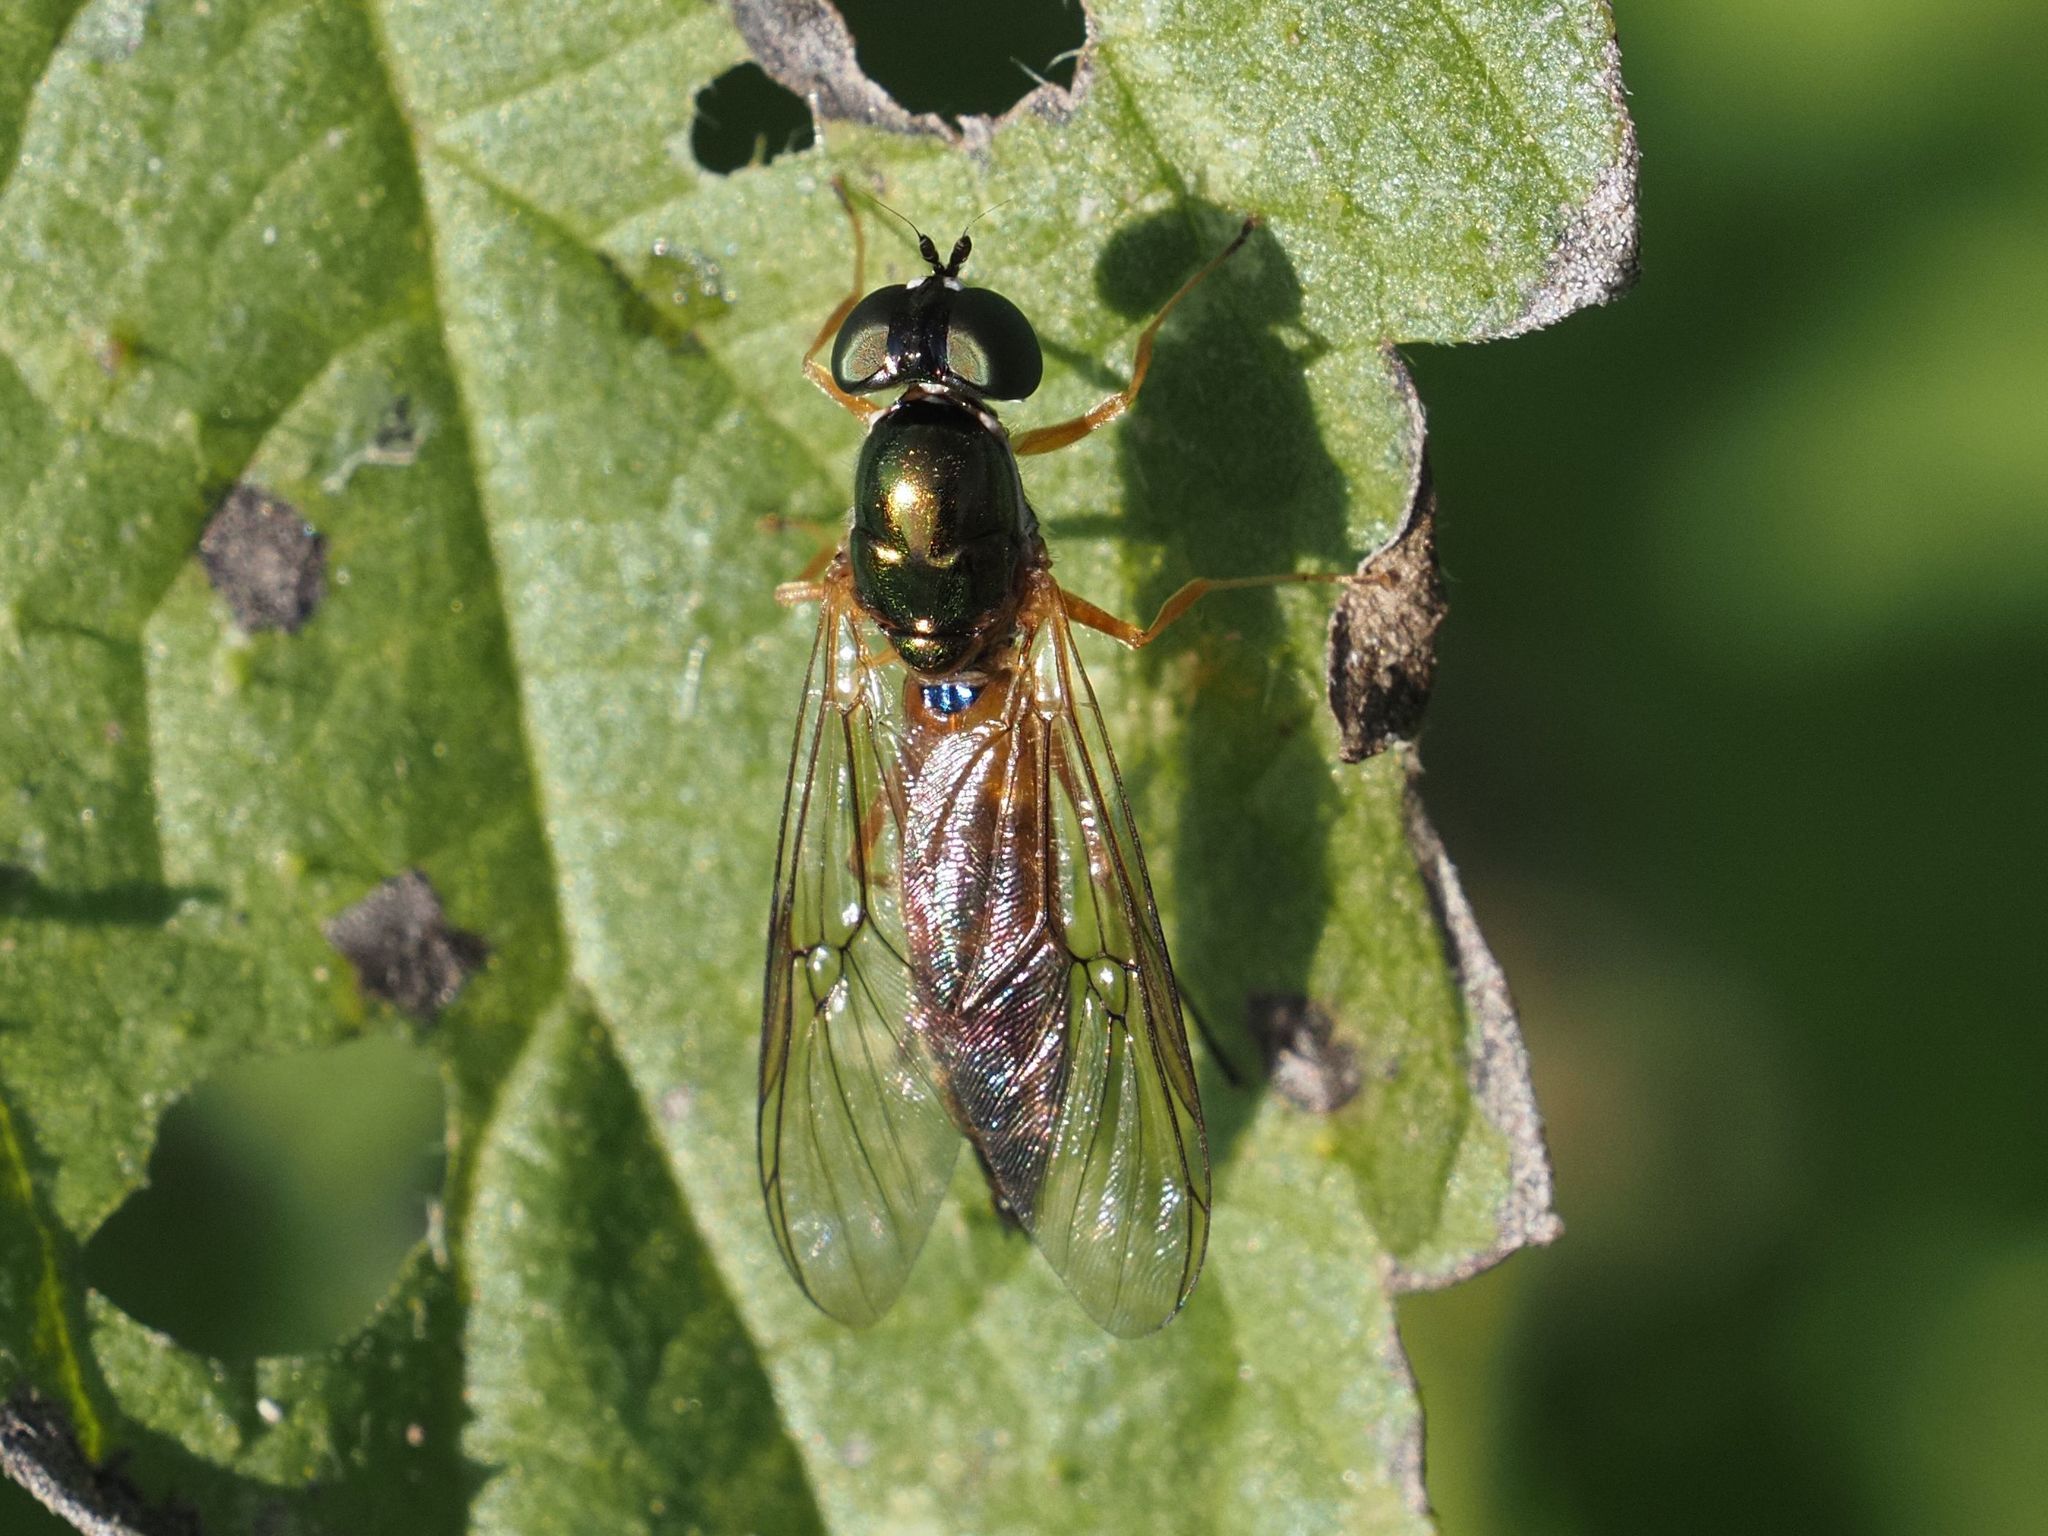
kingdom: Animalia
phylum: Arthropoda
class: Insecta
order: Diptera
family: Stratiomyidae
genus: Sargus
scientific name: Sargus bipunctatus
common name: Twin-spot centurion
